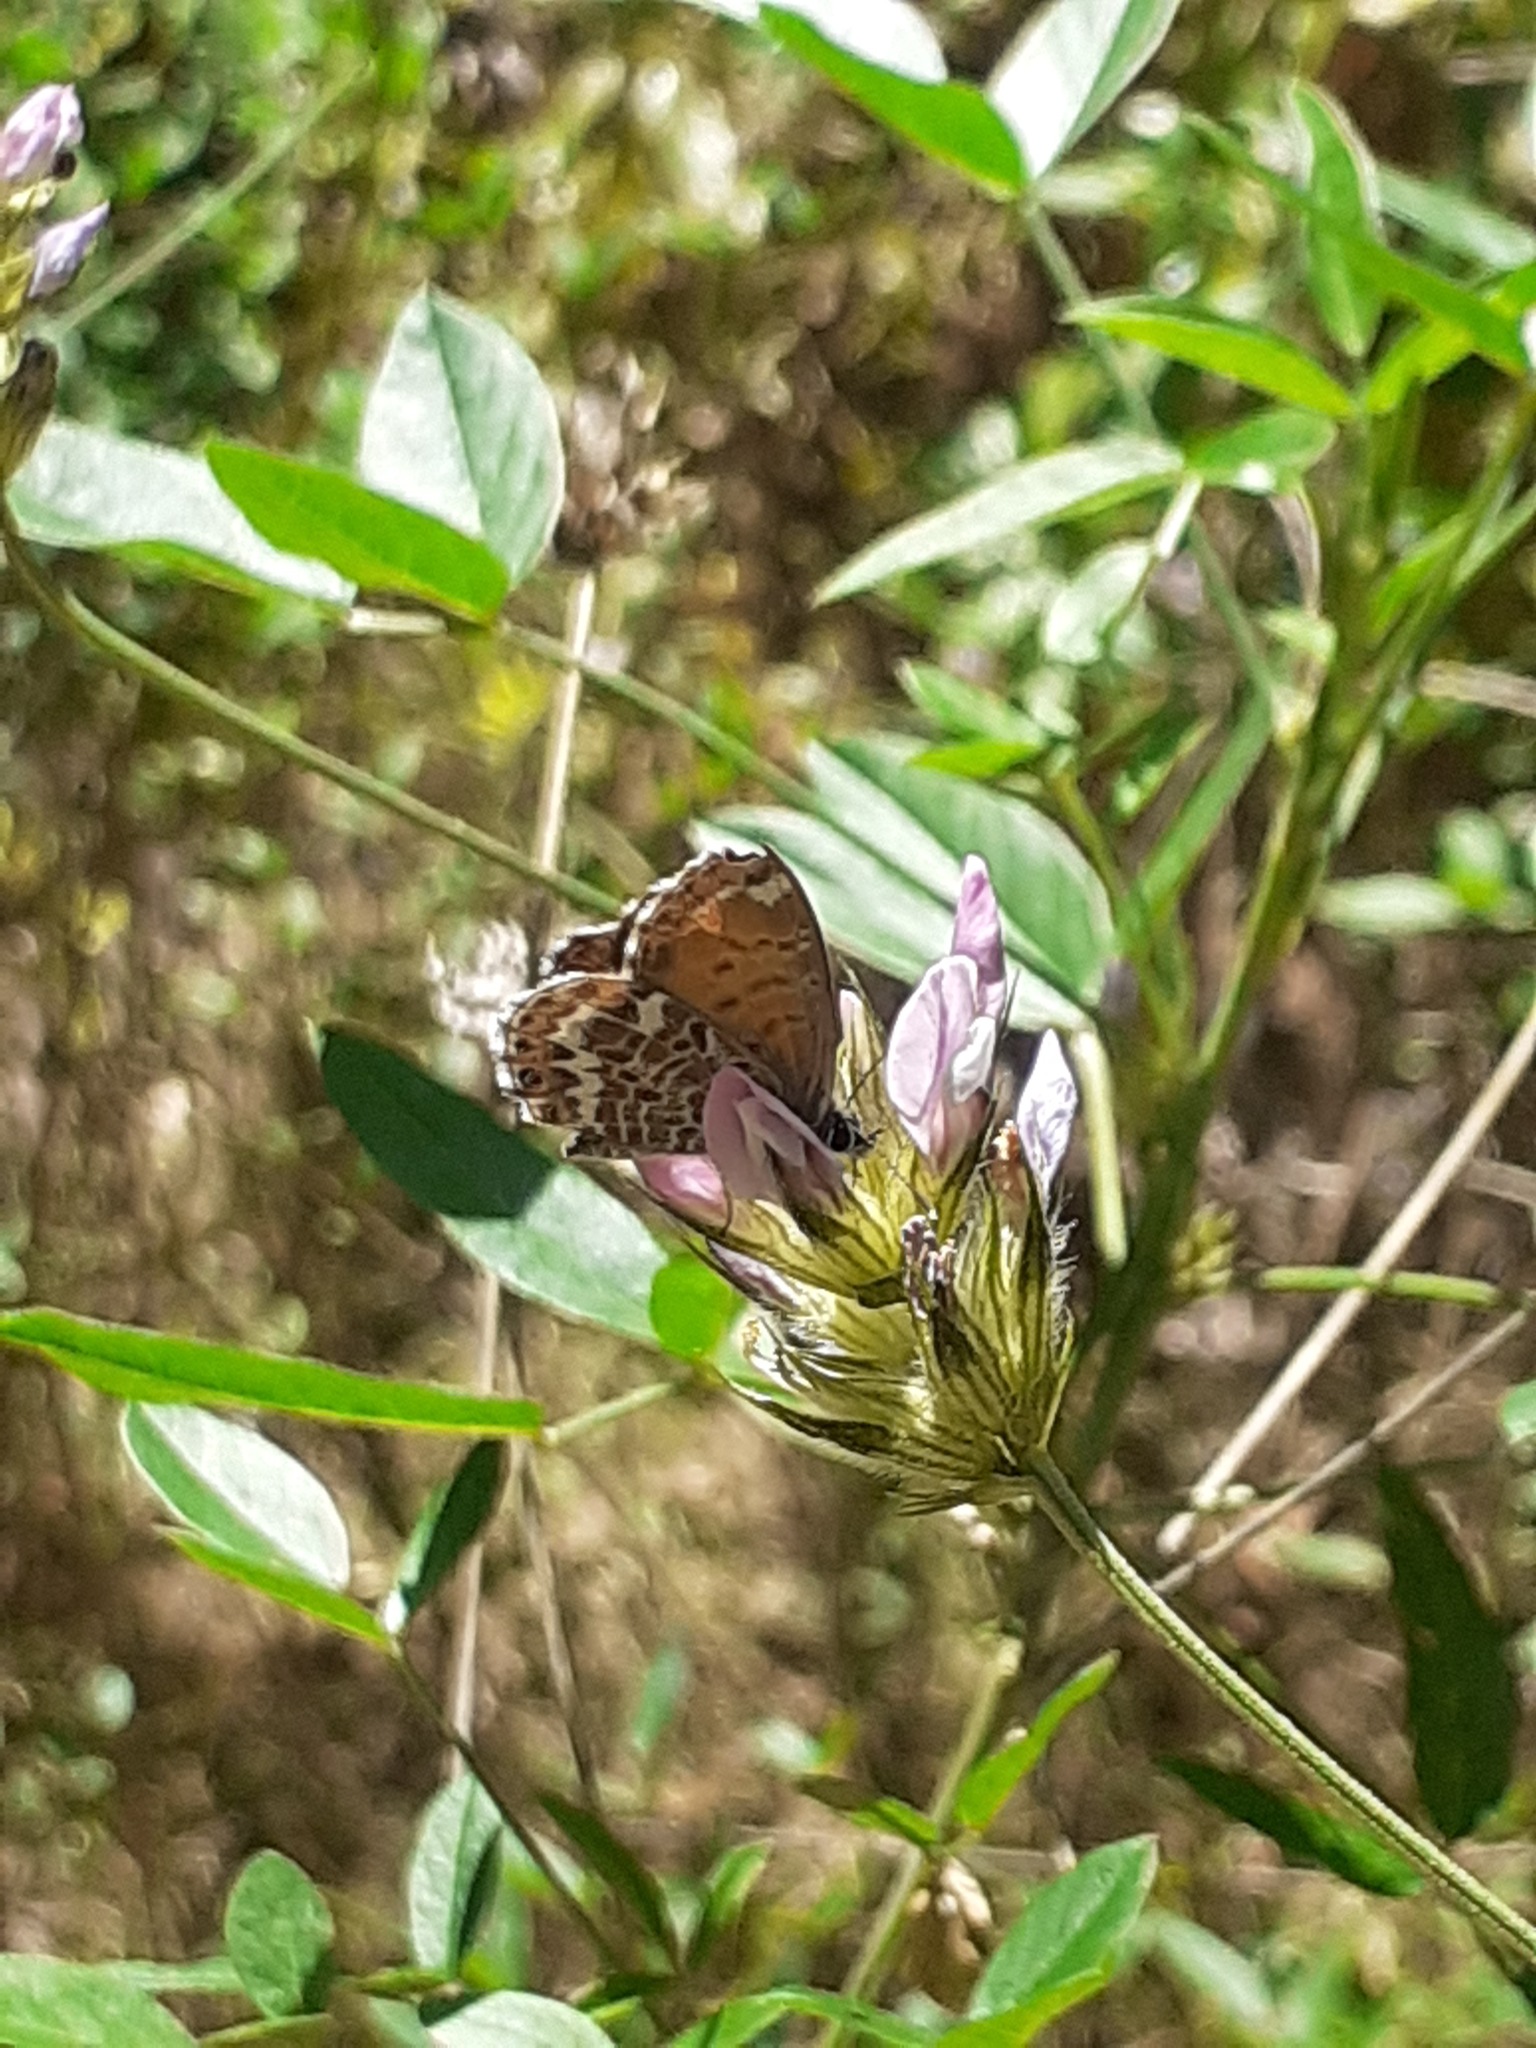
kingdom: Animalia
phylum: Arthropoda
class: Insecta
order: Lepidoptera
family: Lycaenidae
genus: Cyclyrius
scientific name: Cyclyrius webbianus
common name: Canary blue
